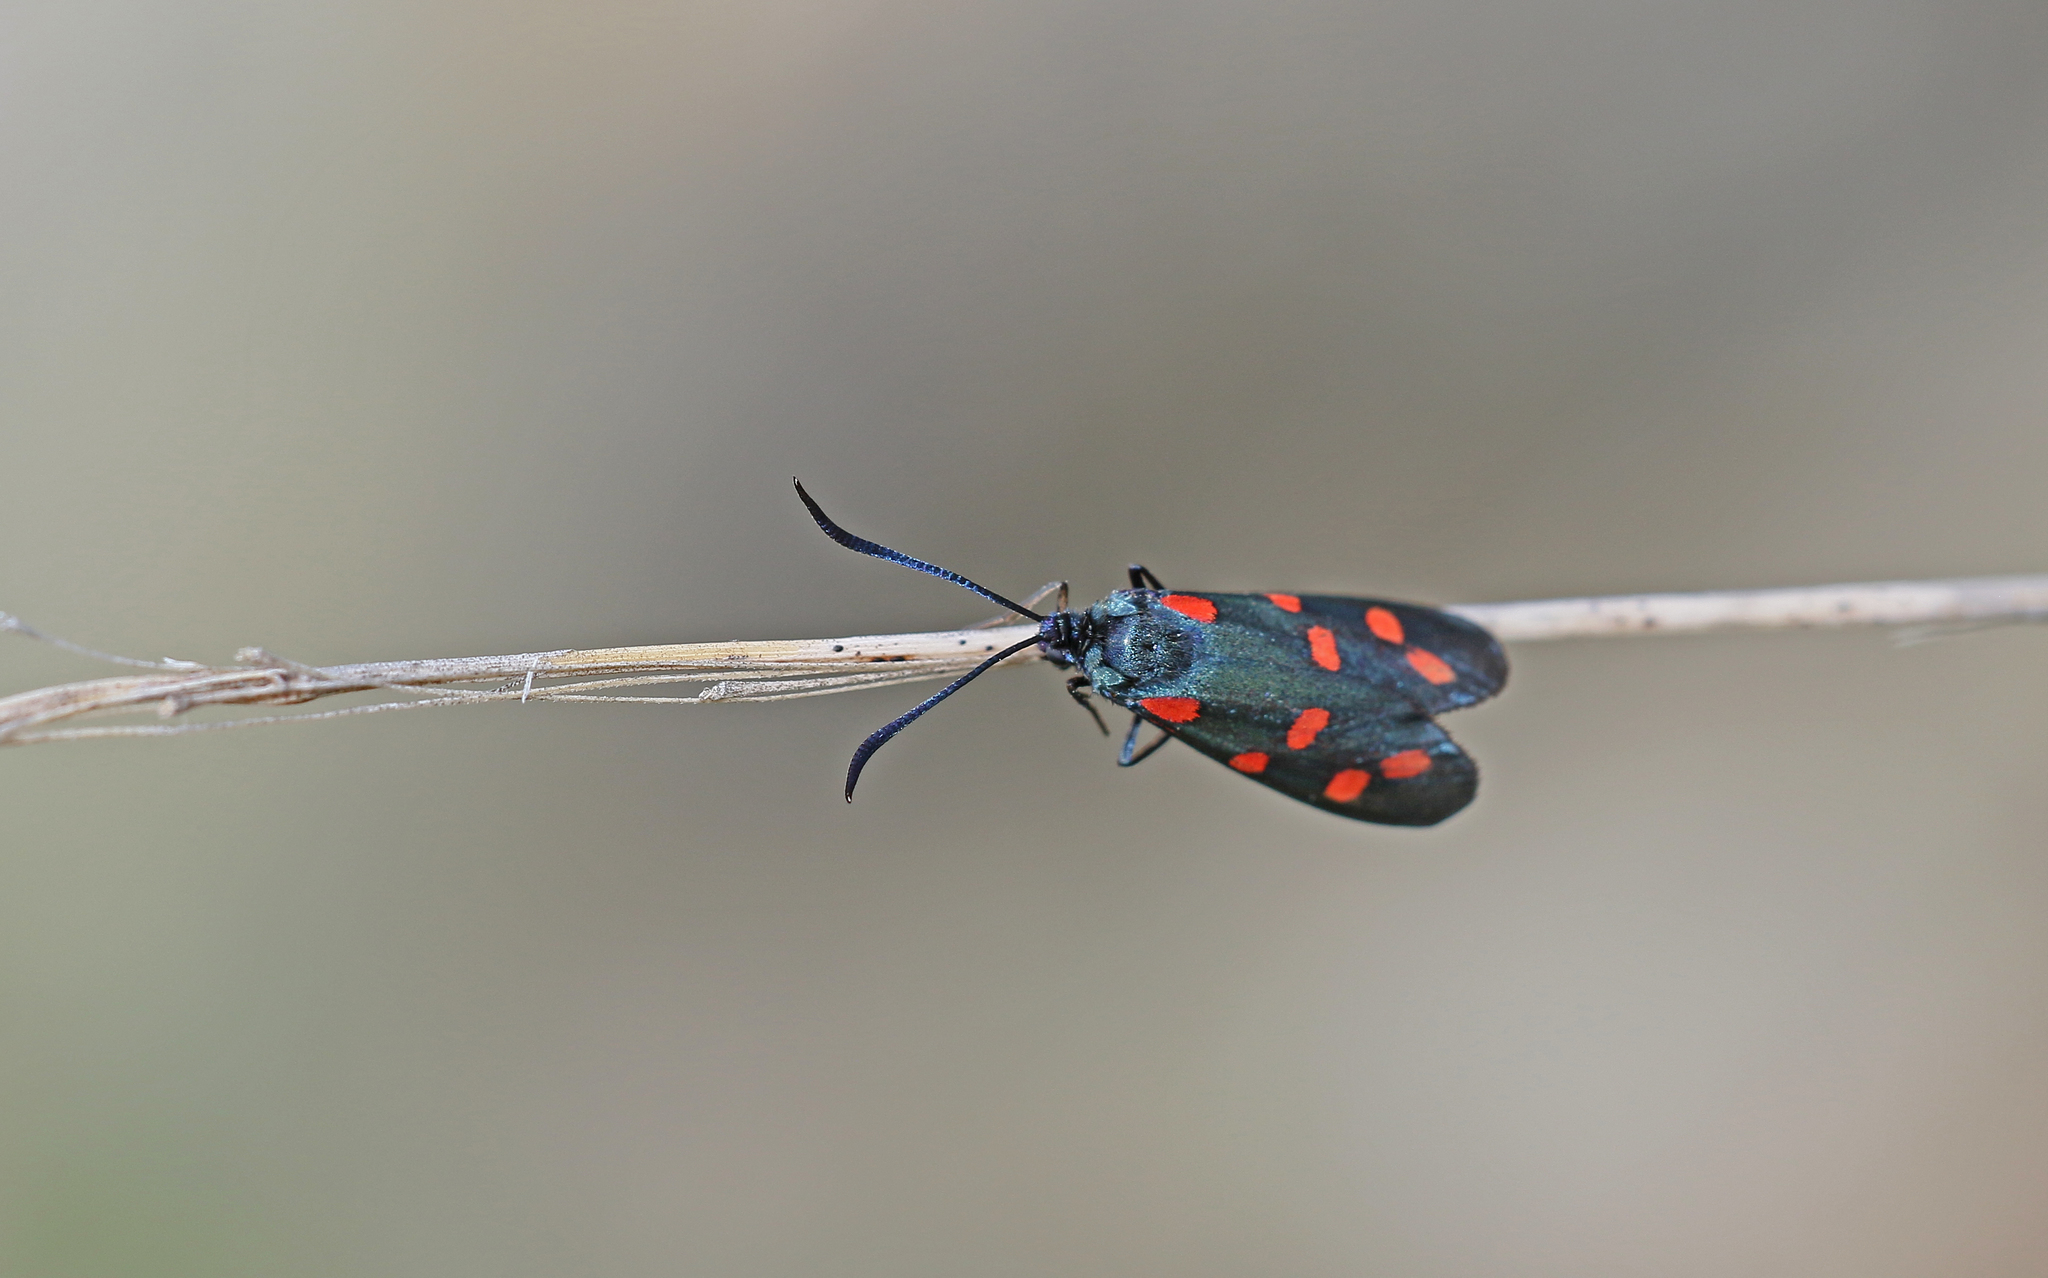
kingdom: Animalia
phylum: Arthropoda
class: Insecta
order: Lepidoptera
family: Zygaenidae
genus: Zygaena
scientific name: Zygaena transalpina
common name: Southern six spot burnet
